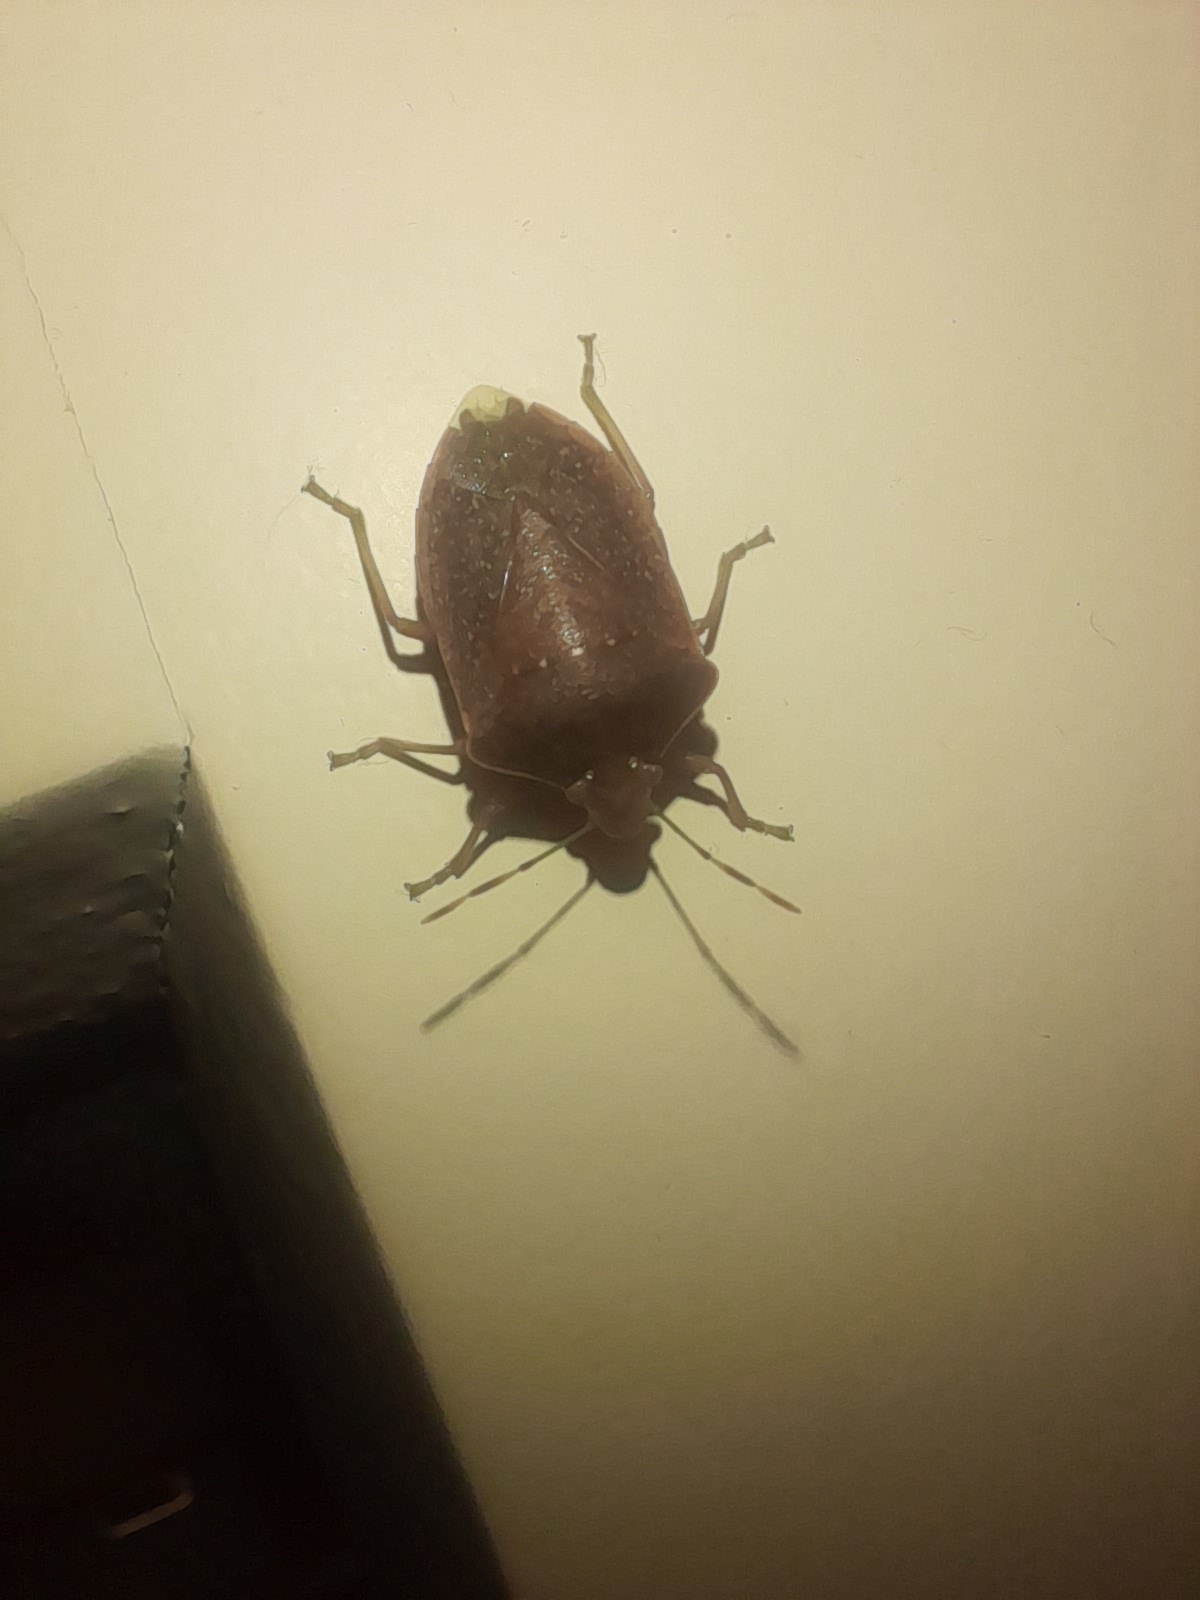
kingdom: Animalia
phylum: Arthropoda
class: Insecta
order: Hemiptera
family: Pentatomidae
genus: Nezara
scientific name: Nezara viridula
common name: Southern green stink bug
